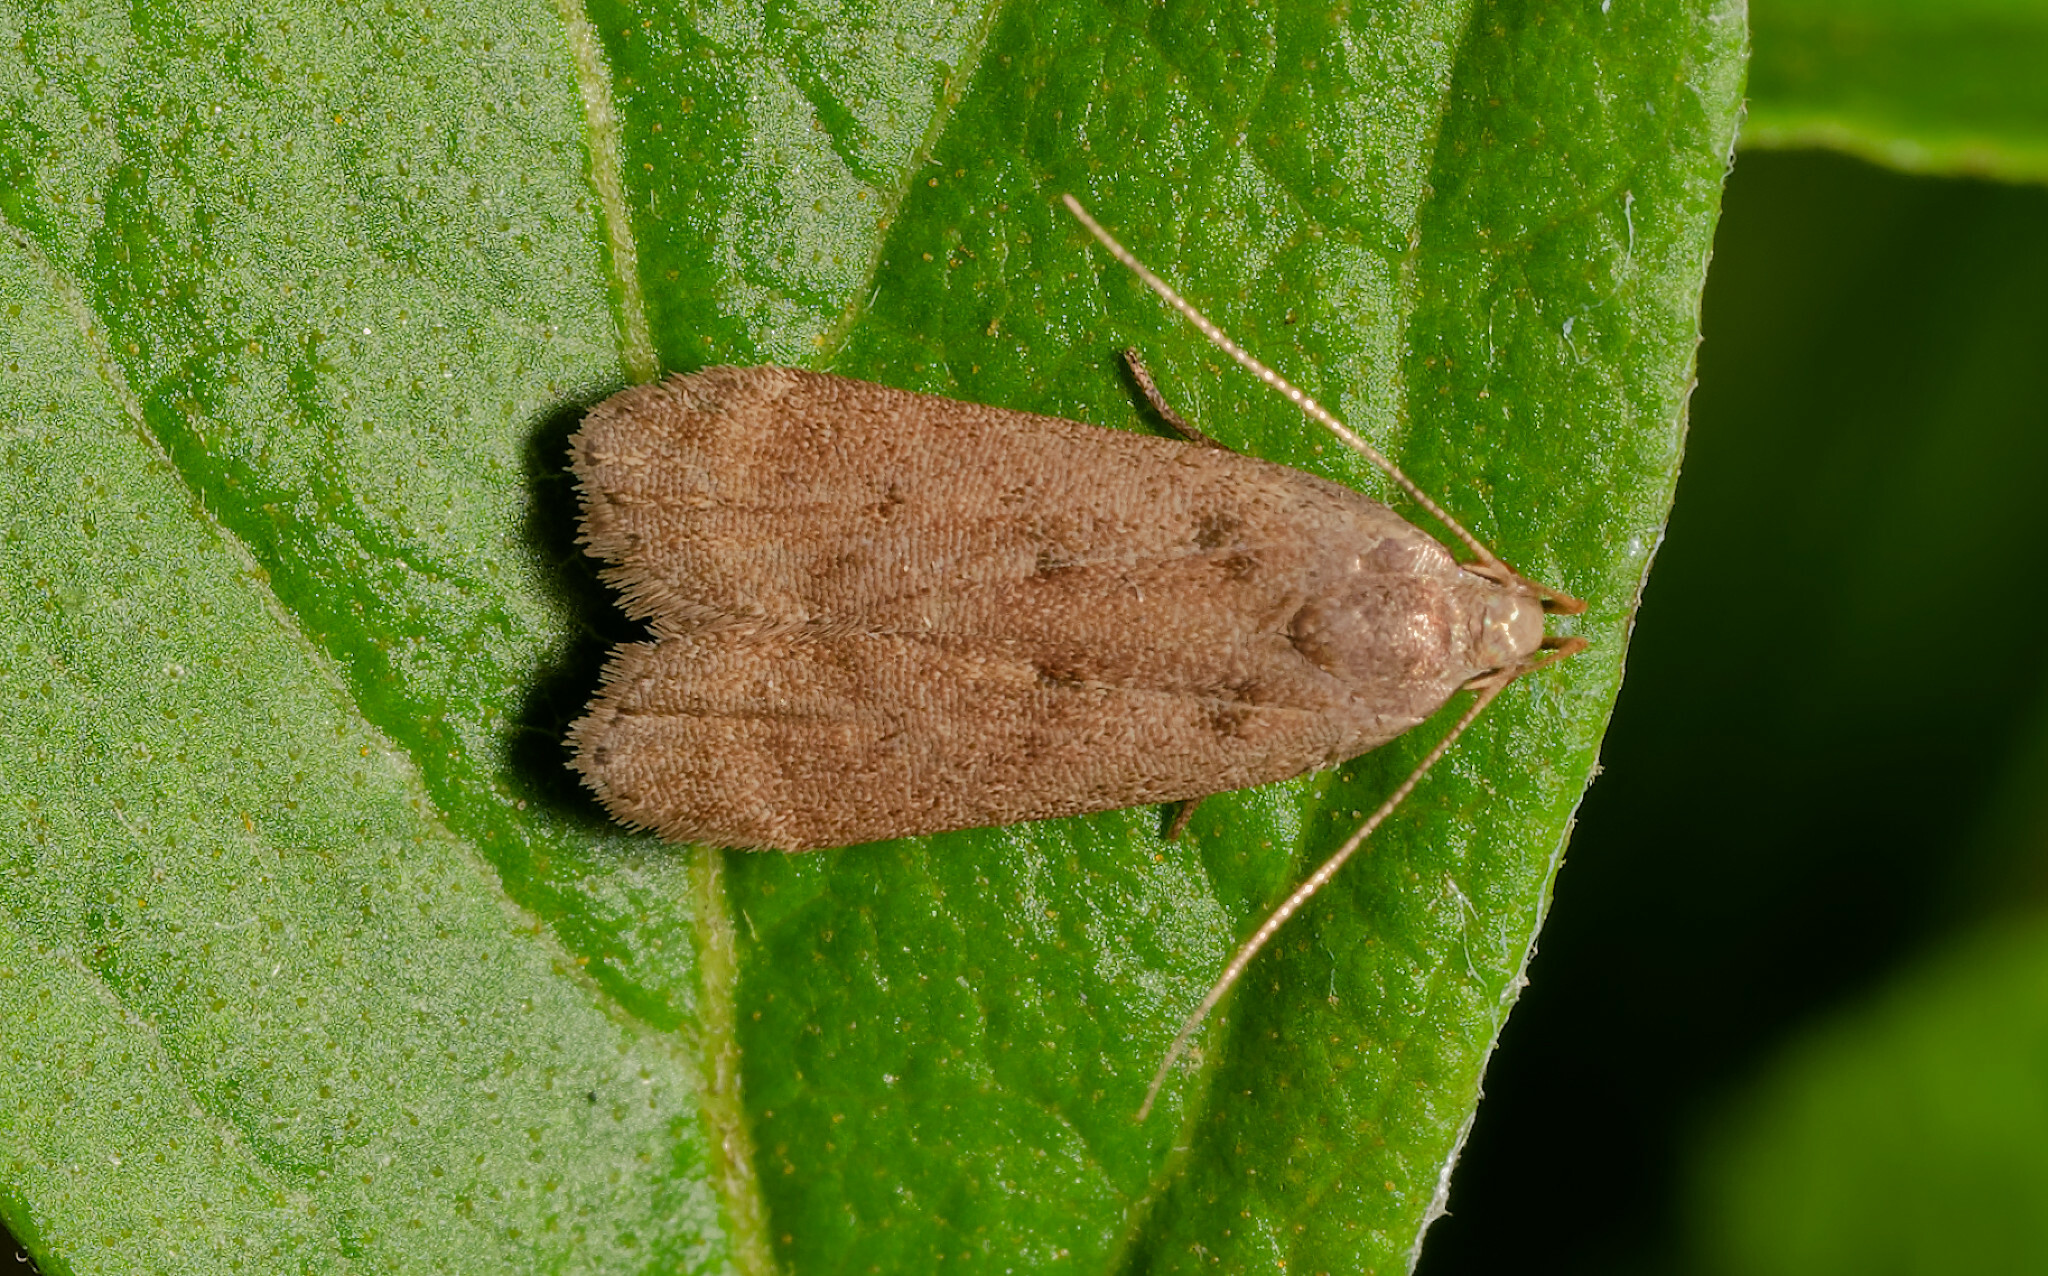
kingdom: Animalia
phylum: Arthropoda
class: Insecta
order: Lepidoptera
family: Depressariidae
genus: Psilocorsis
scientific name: Psilocorsis reflexella
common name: Dotted leaftier moth
